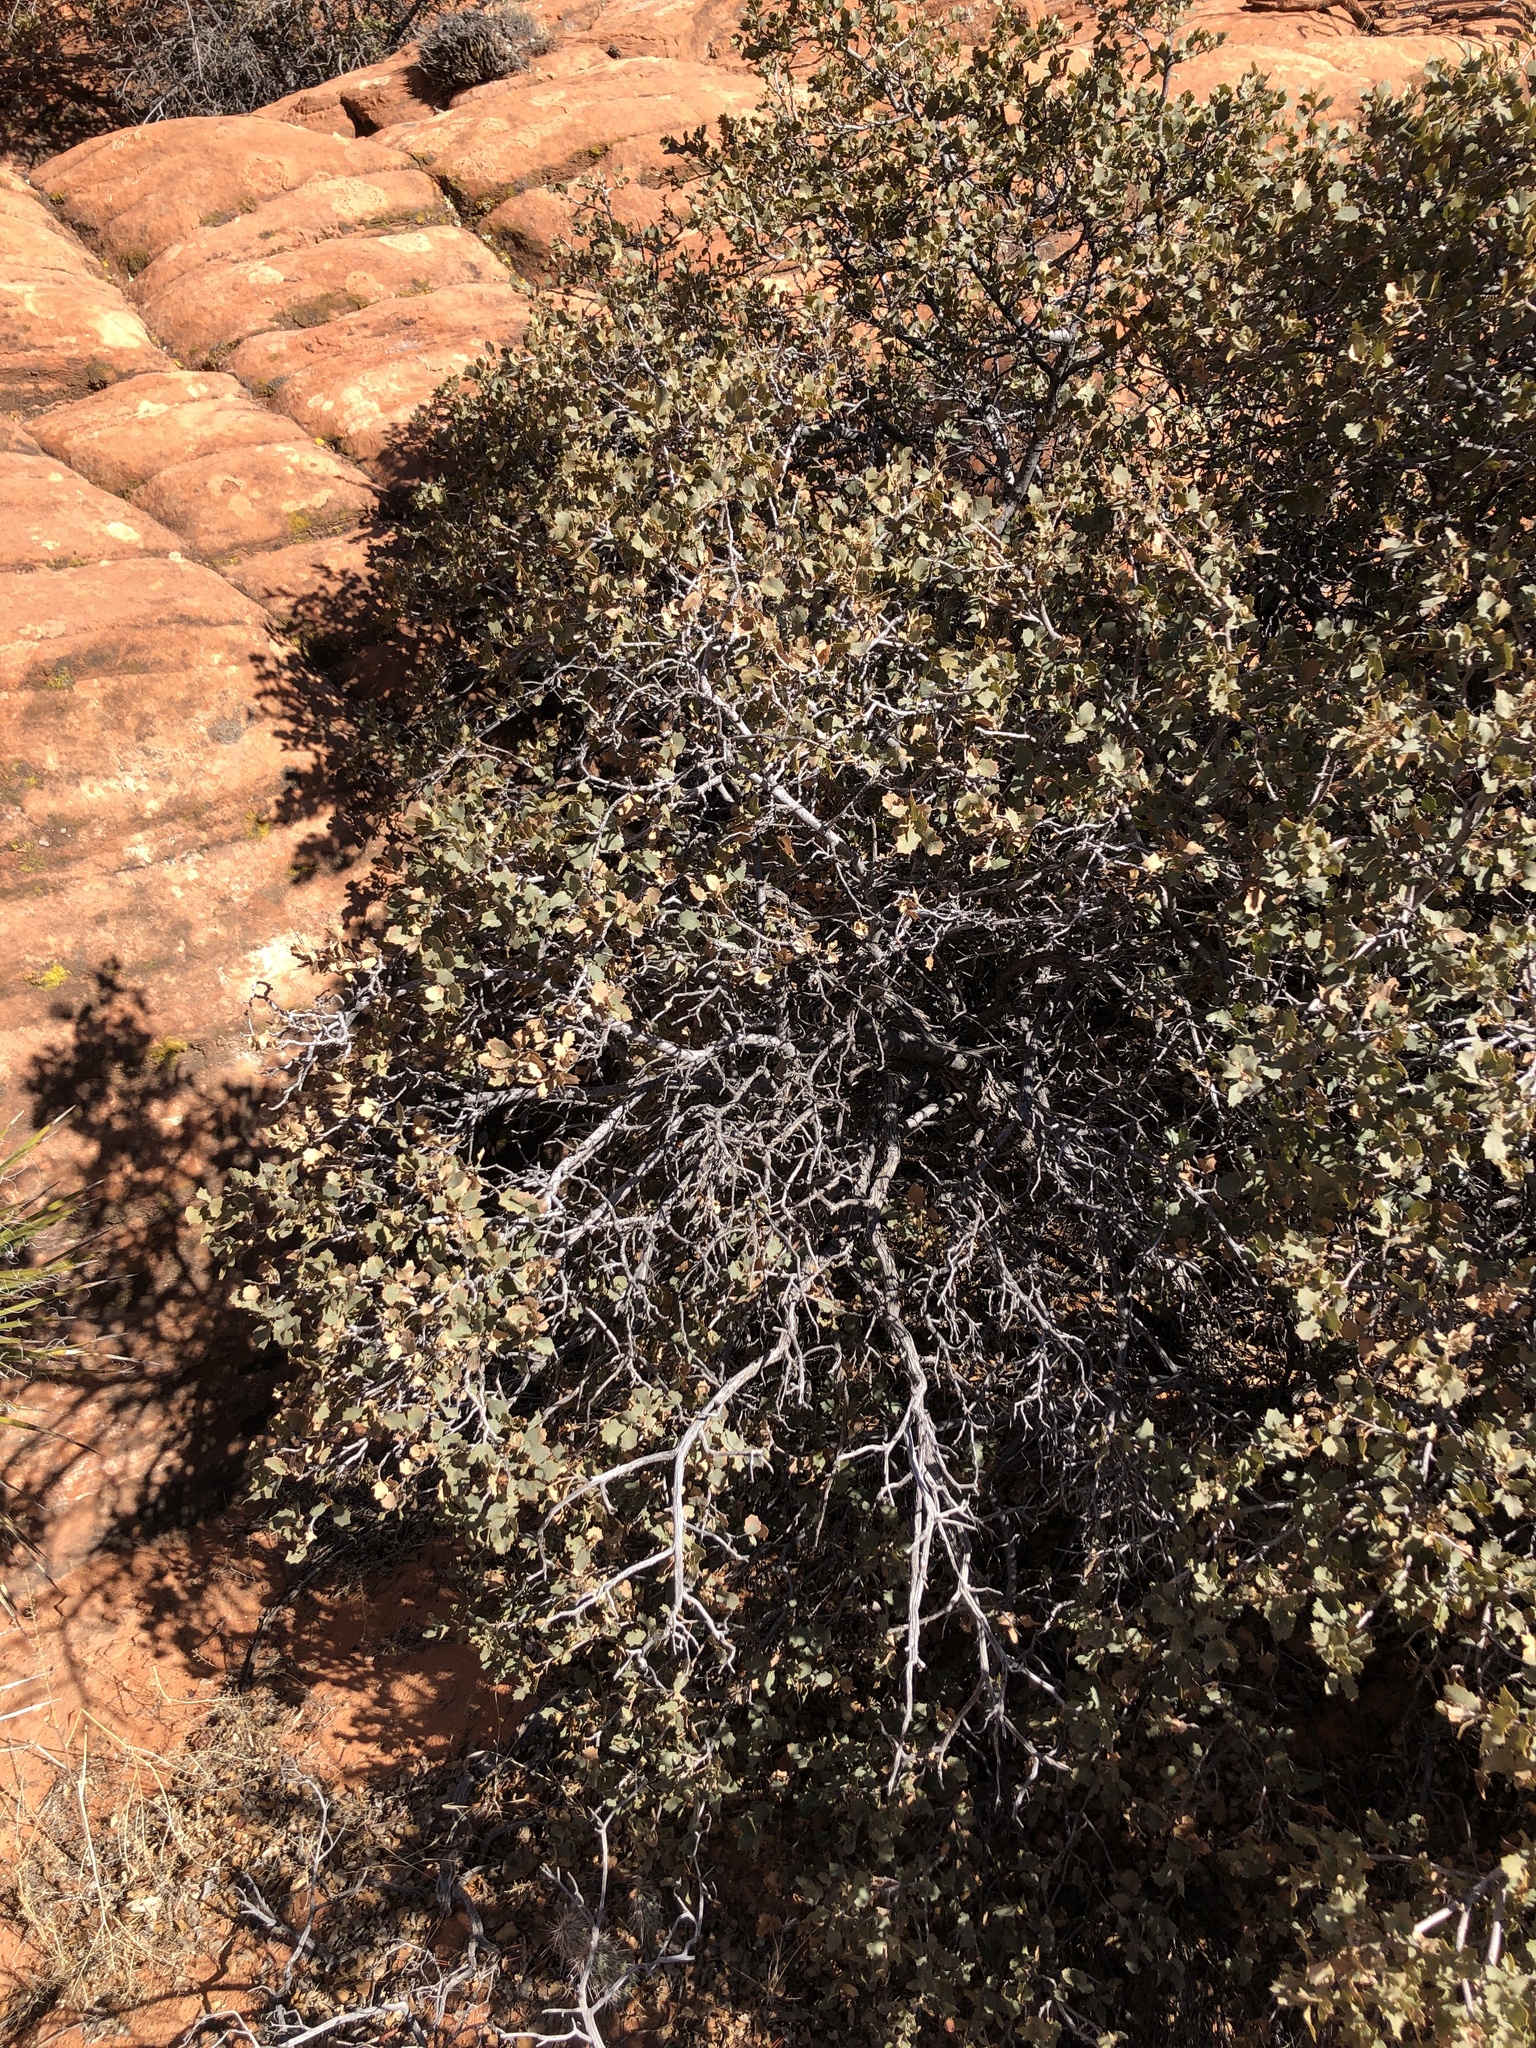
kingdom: Plantae
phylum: Tracheophyta
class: Magnoliopsida
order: Fagales
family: Fagaceae
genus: Quercus
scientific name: Quercus turbinella
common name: Sonoran scrub oak
